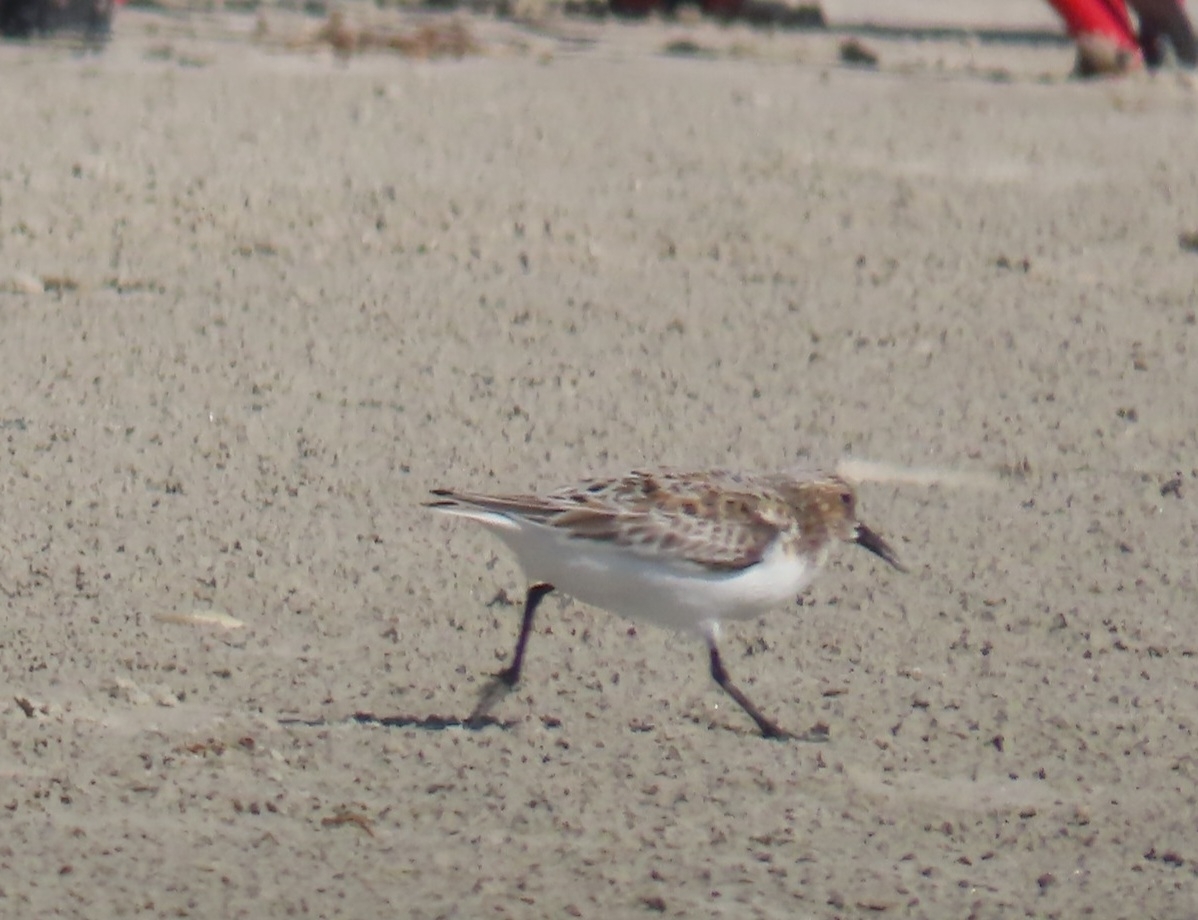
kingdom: Animalia
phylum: Chordata
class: Aves
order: Charadriiformes
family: Scolopacidae
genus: Calidris
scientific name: Calidris alba
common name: Sanderling
